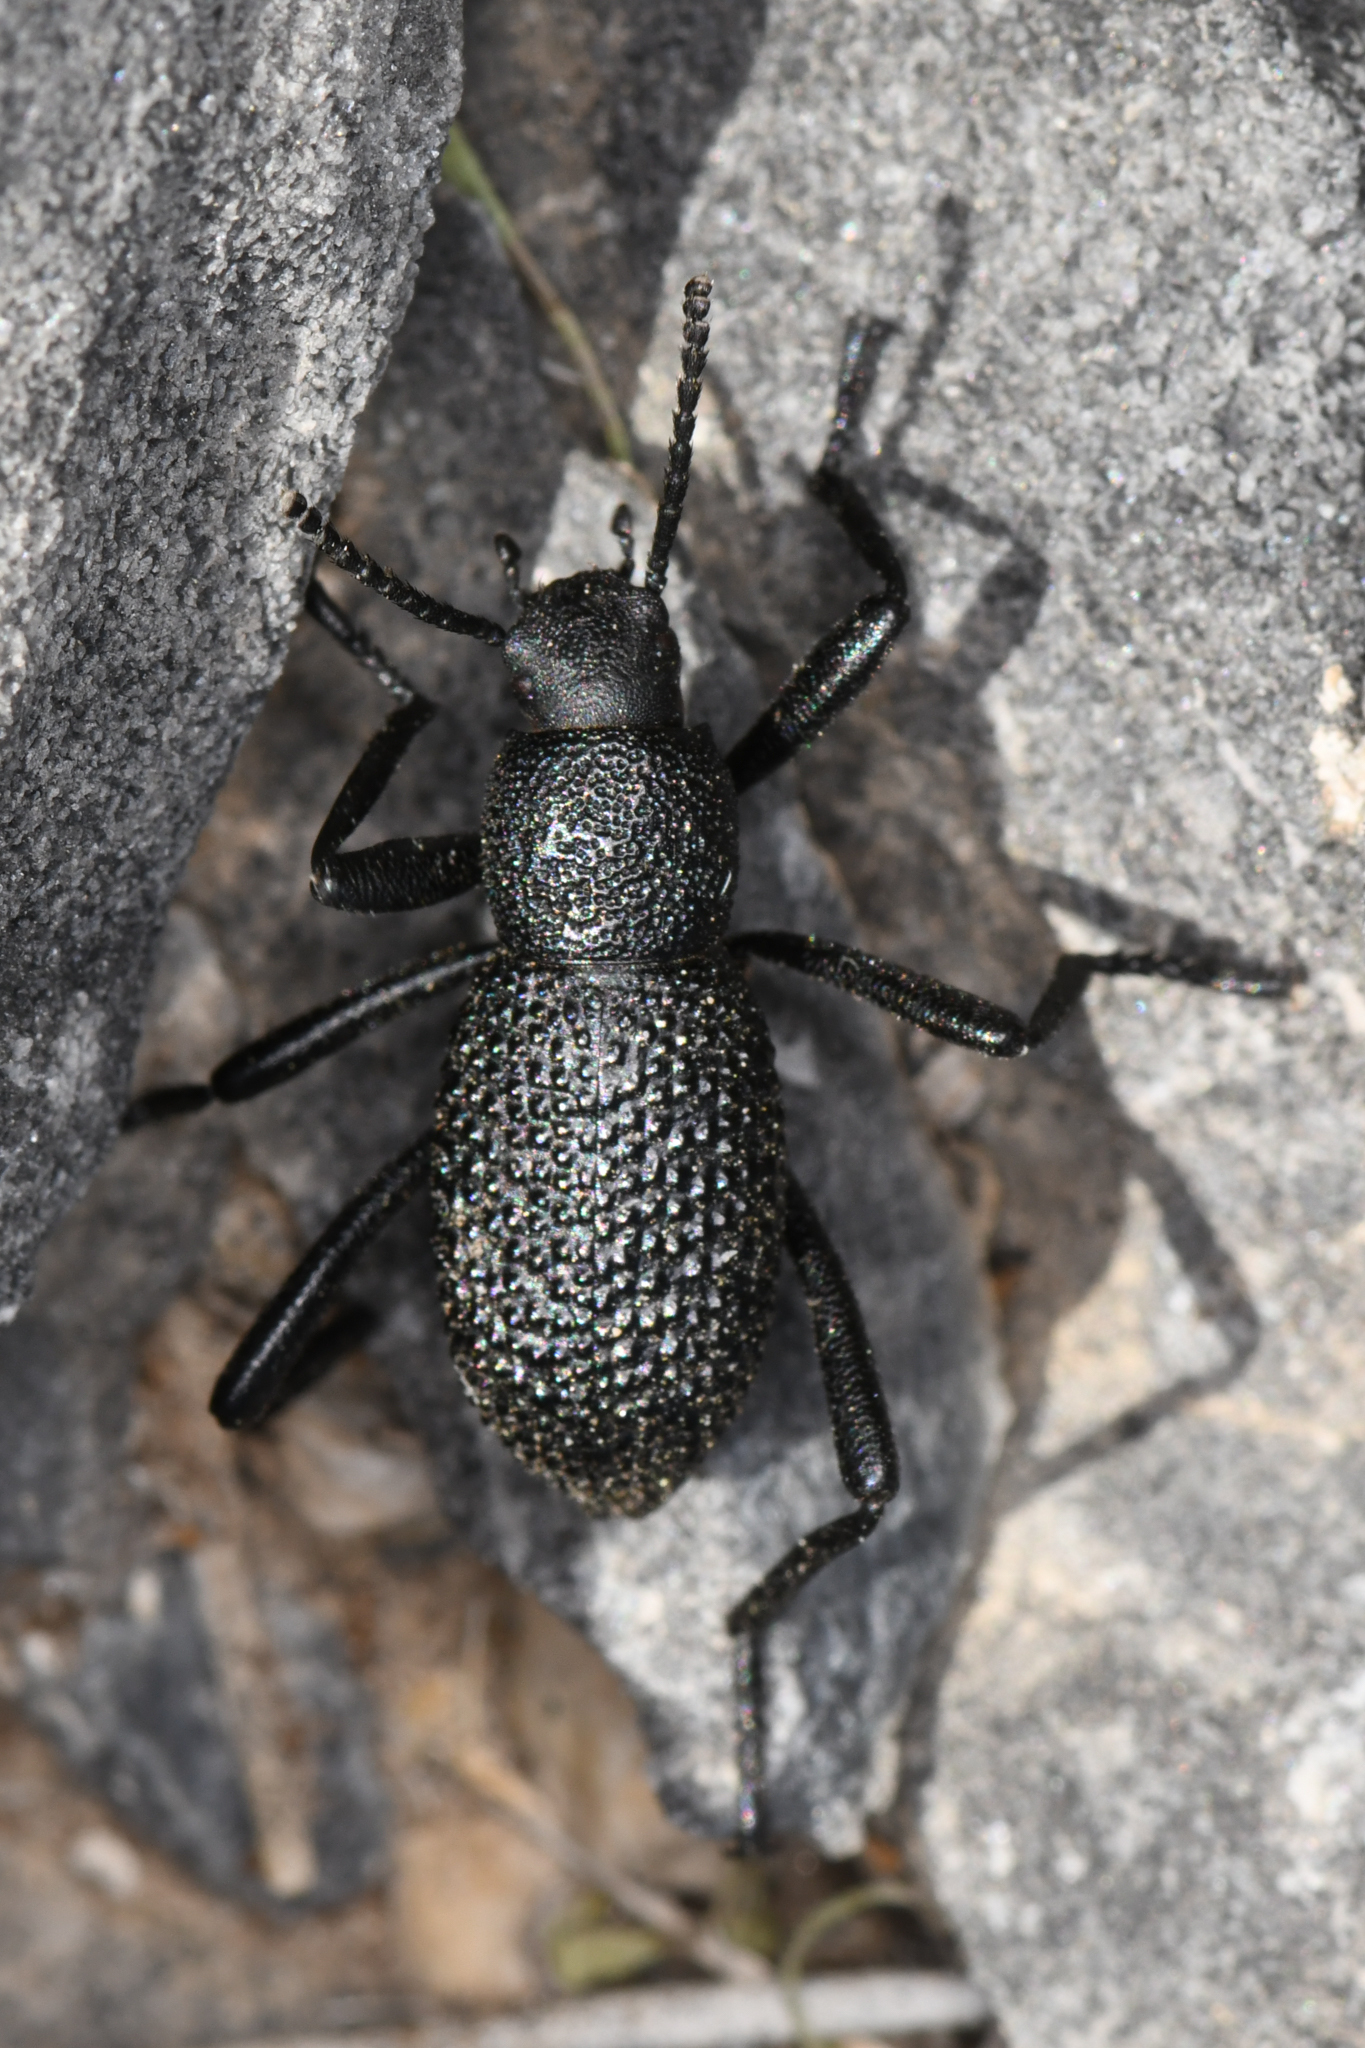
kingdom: Animalia
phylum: Arthropoda
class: Insecta
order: Coleoptera
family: Tenebrionidae
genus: Eleodes
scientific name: Eleodes granosa
